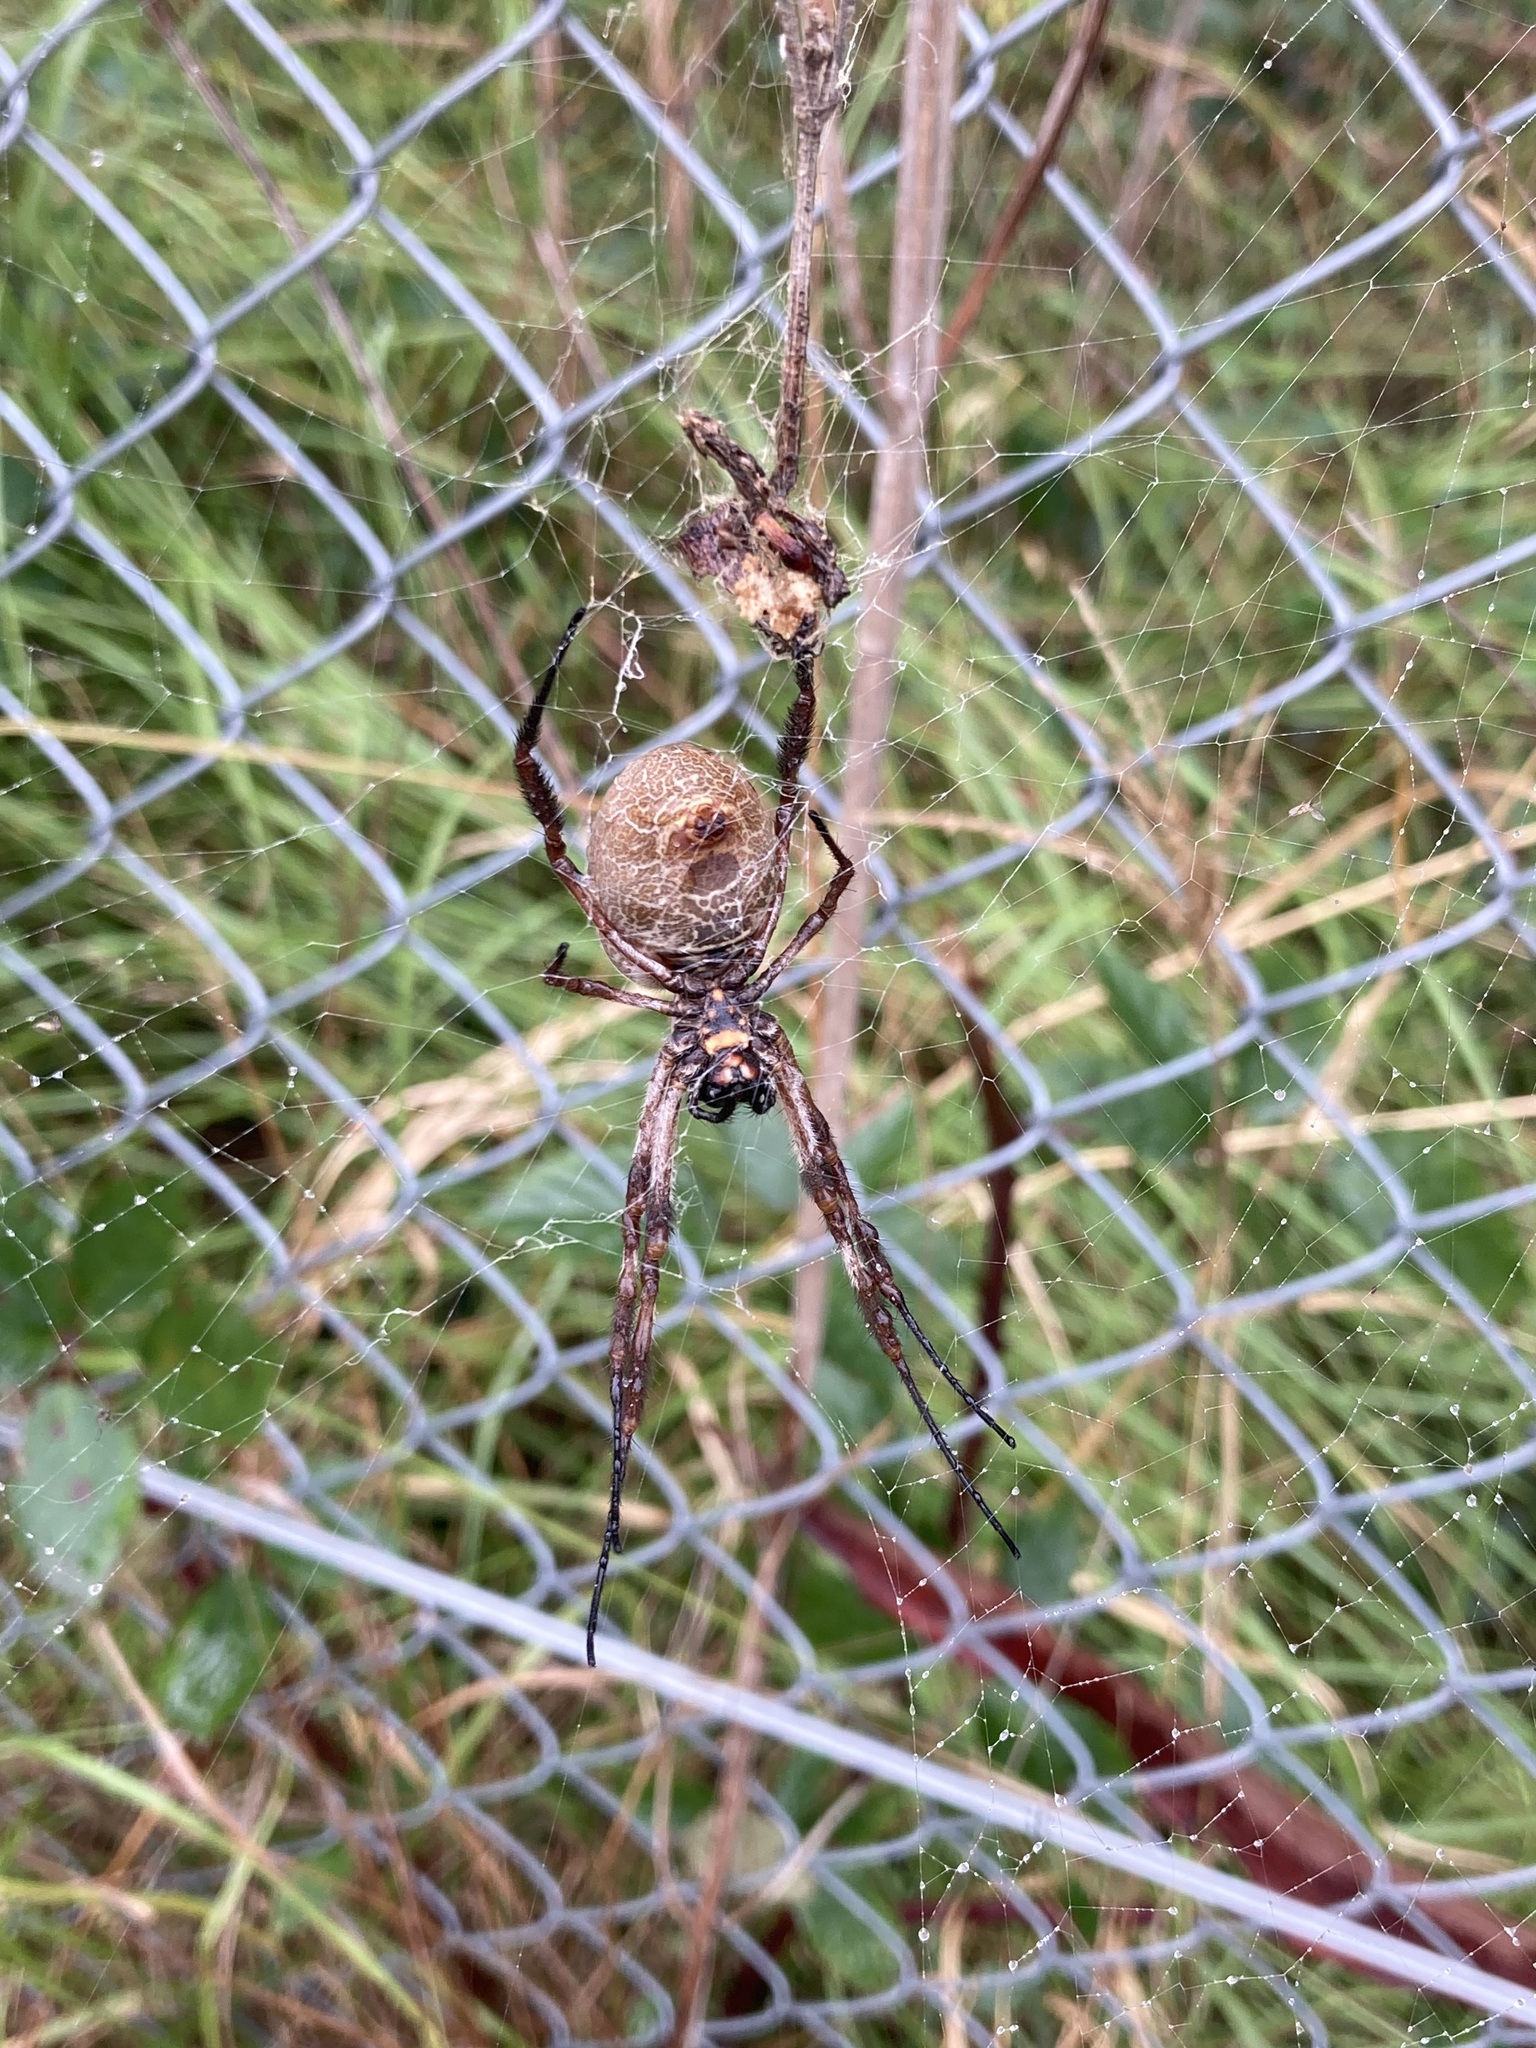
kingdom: Animalia
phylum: Arthropoda
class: Arachnida
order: Araneae
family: Araneidae
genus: Trichonephila
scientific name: Trichonephila edulis
